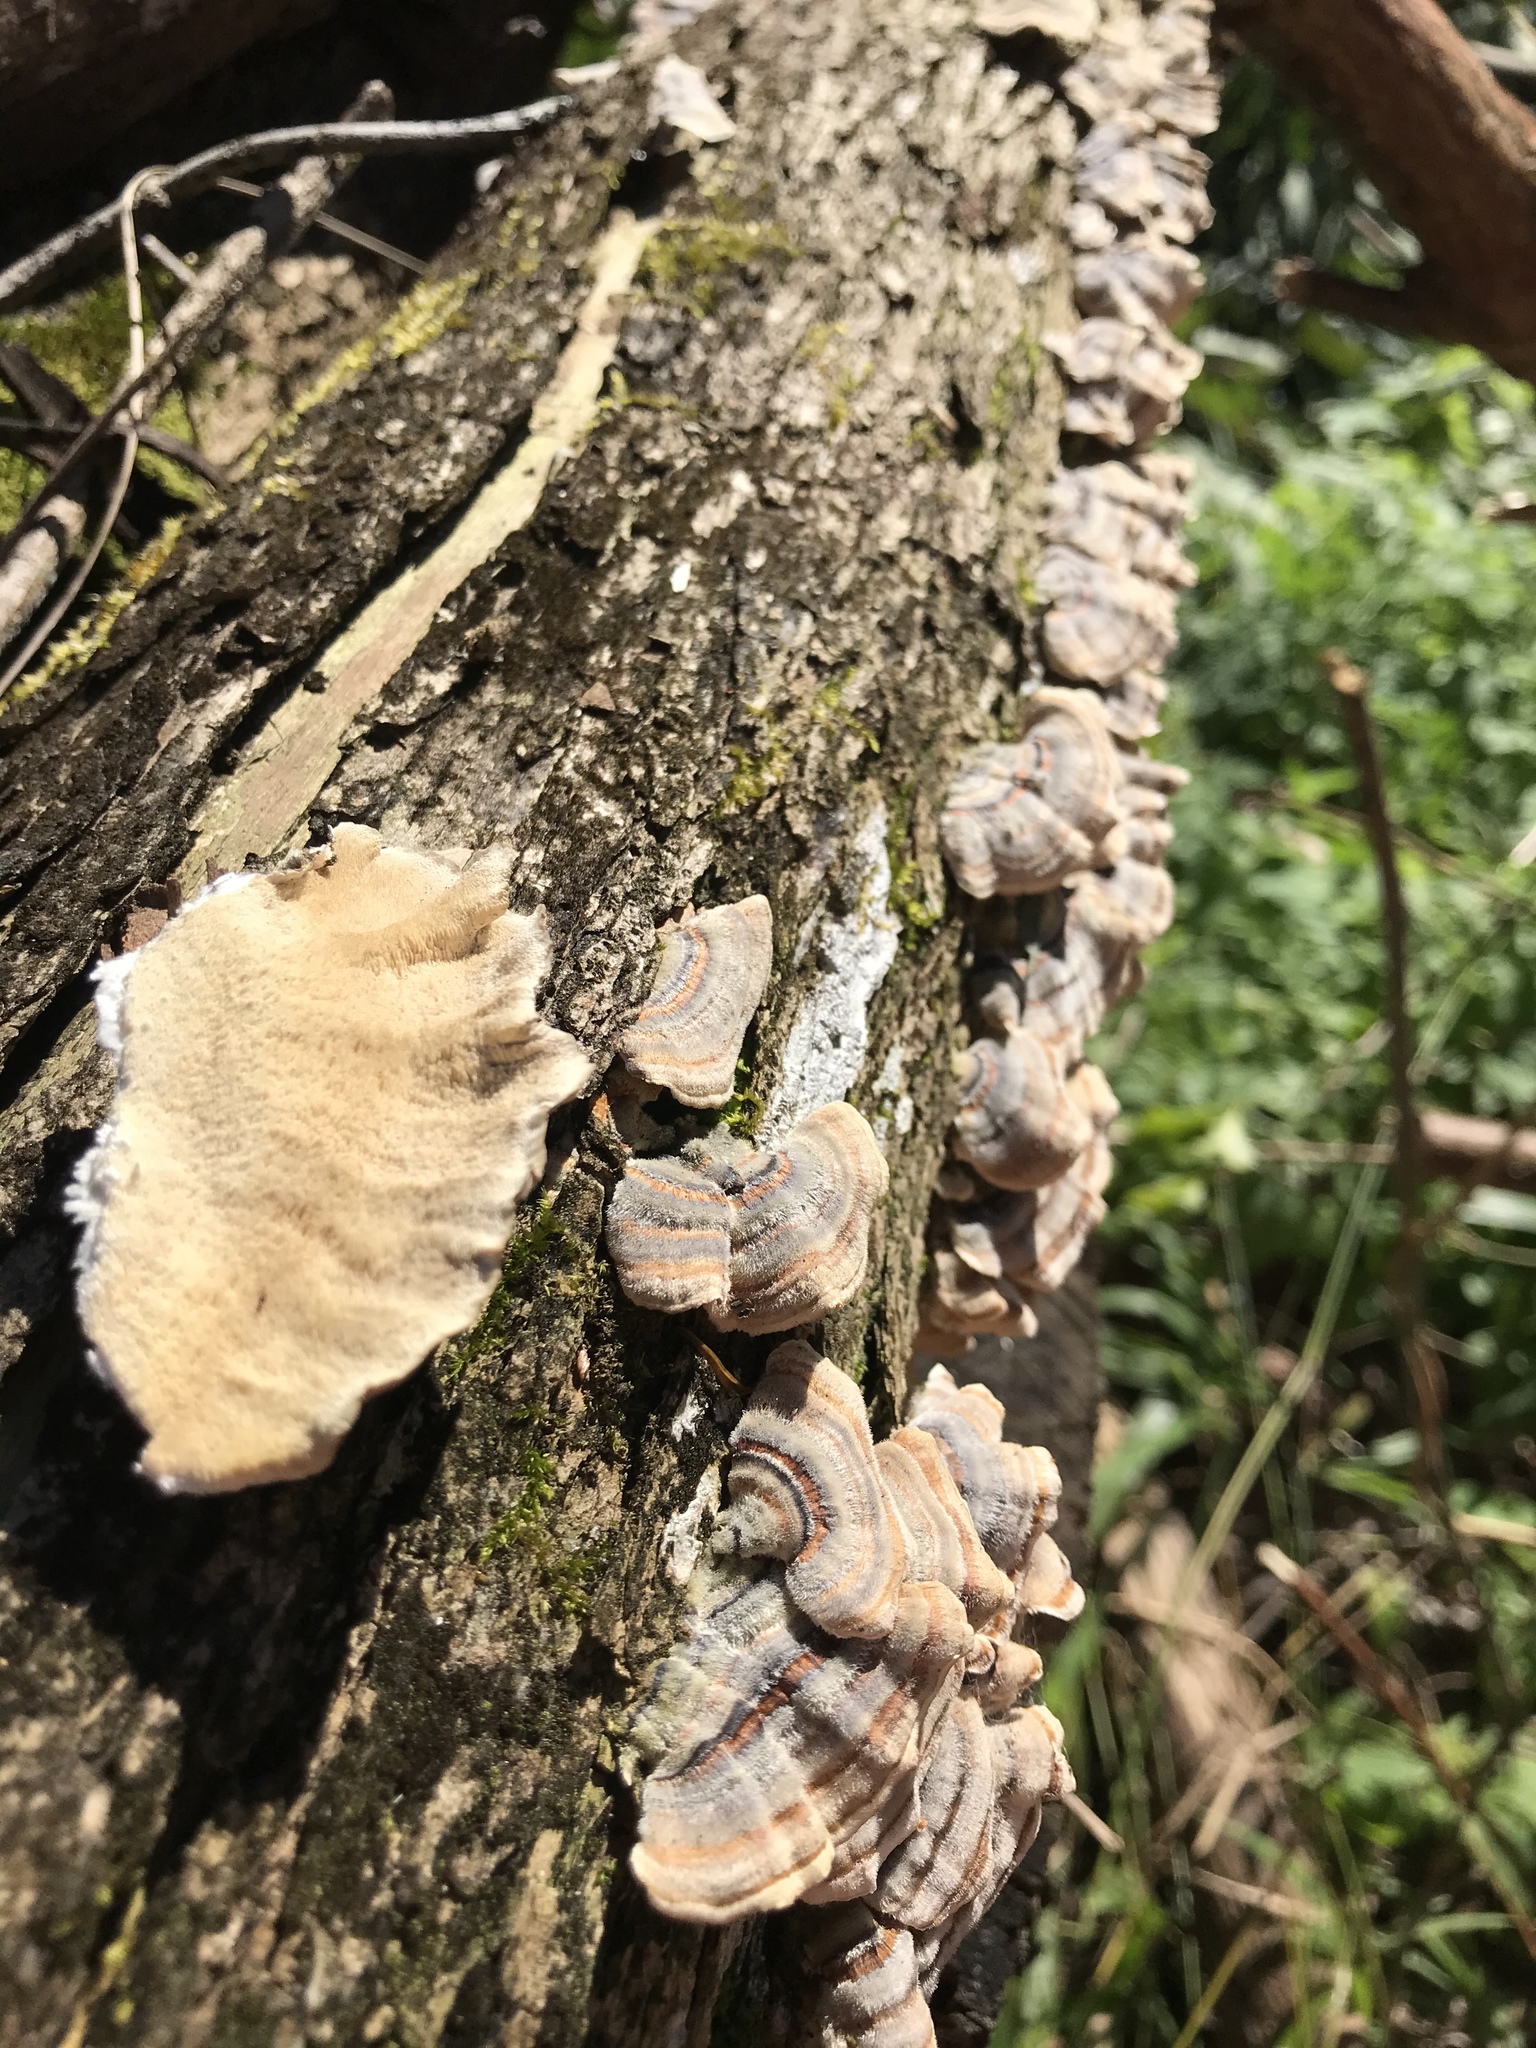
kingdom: Fungi
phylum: Basidiomycota
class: Agaricomycetes
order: Polyporales
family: Polyporaceae
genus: Trametes
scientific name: Trametes versicolor
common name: Turkeytail
